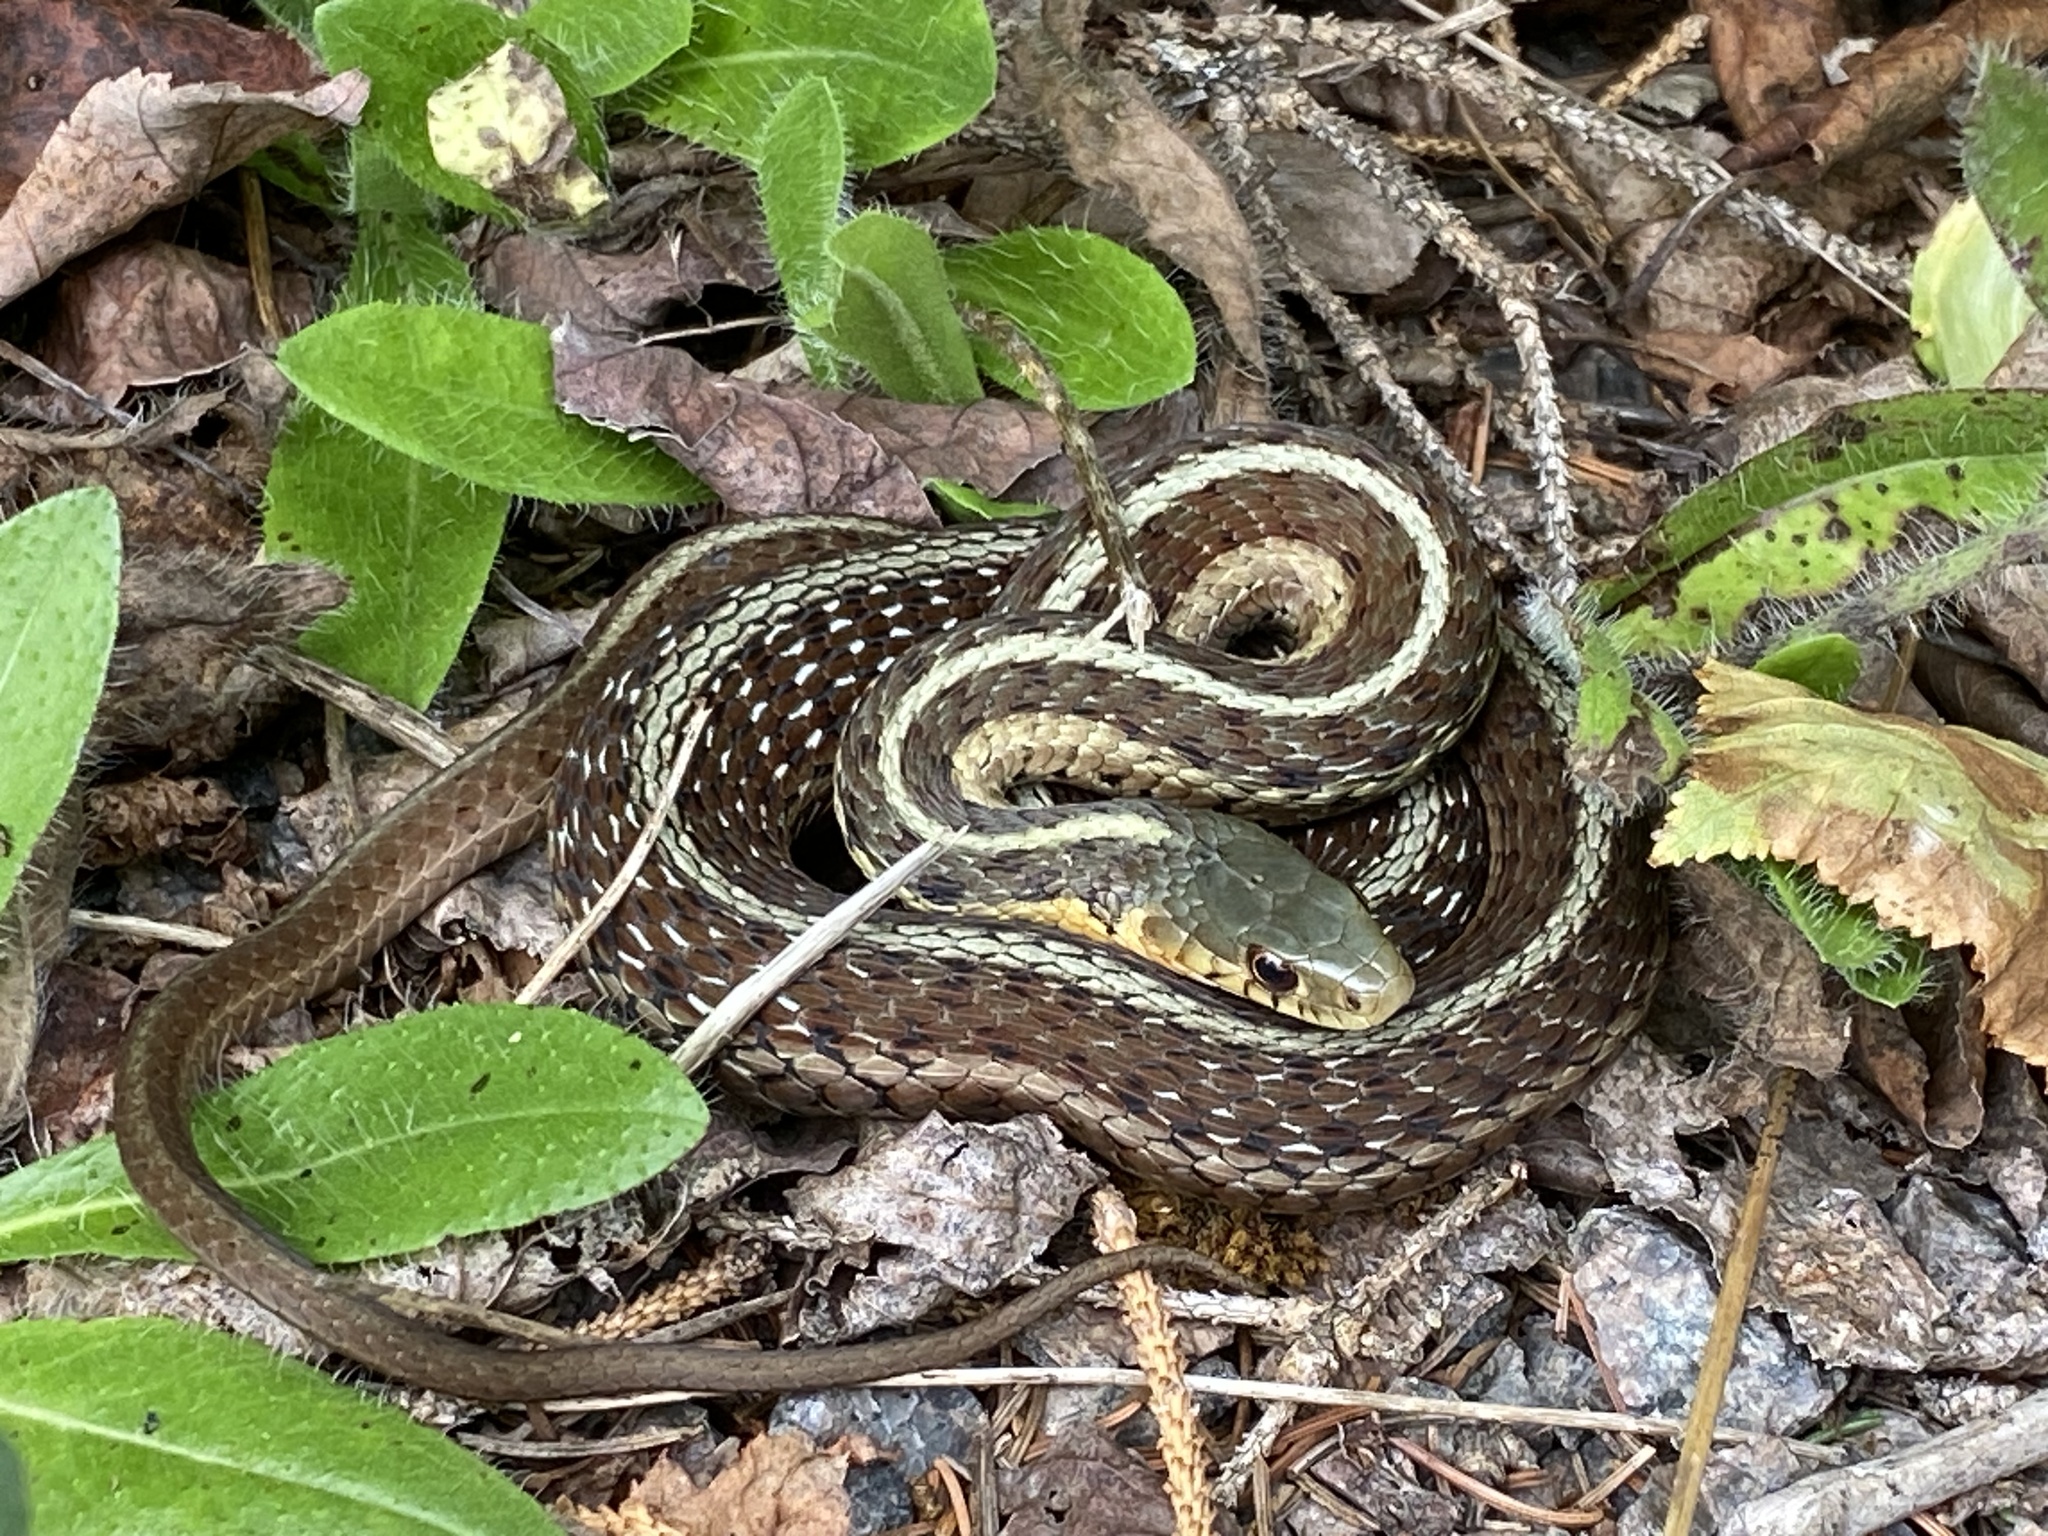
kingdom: Animalia
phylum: Chordata
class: Squamata
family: Colubridae
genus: Thamnophis
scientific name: Thamnophis sirtalis
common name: Common garter snake
